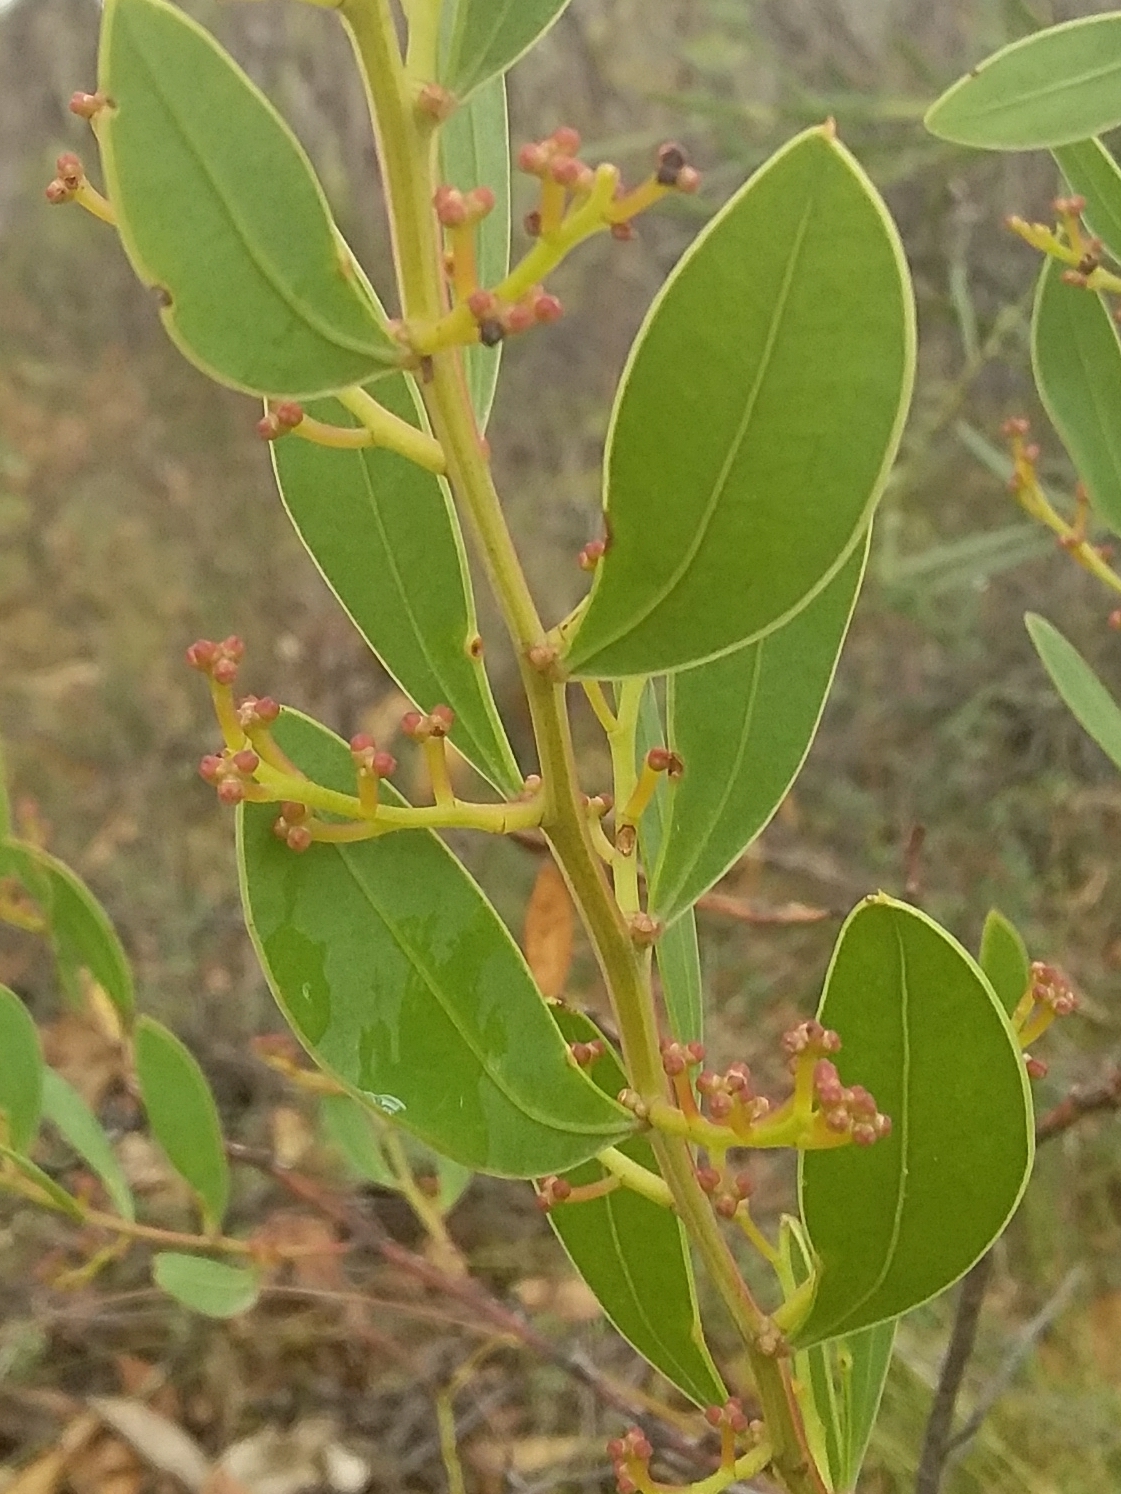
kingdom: Plantae
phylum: Tracheophyta
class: Magnoliopsida
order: Fabales
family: Fabaceae
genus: Acacia
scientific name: Acacia myrtifolia
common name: Myrtle wattle
